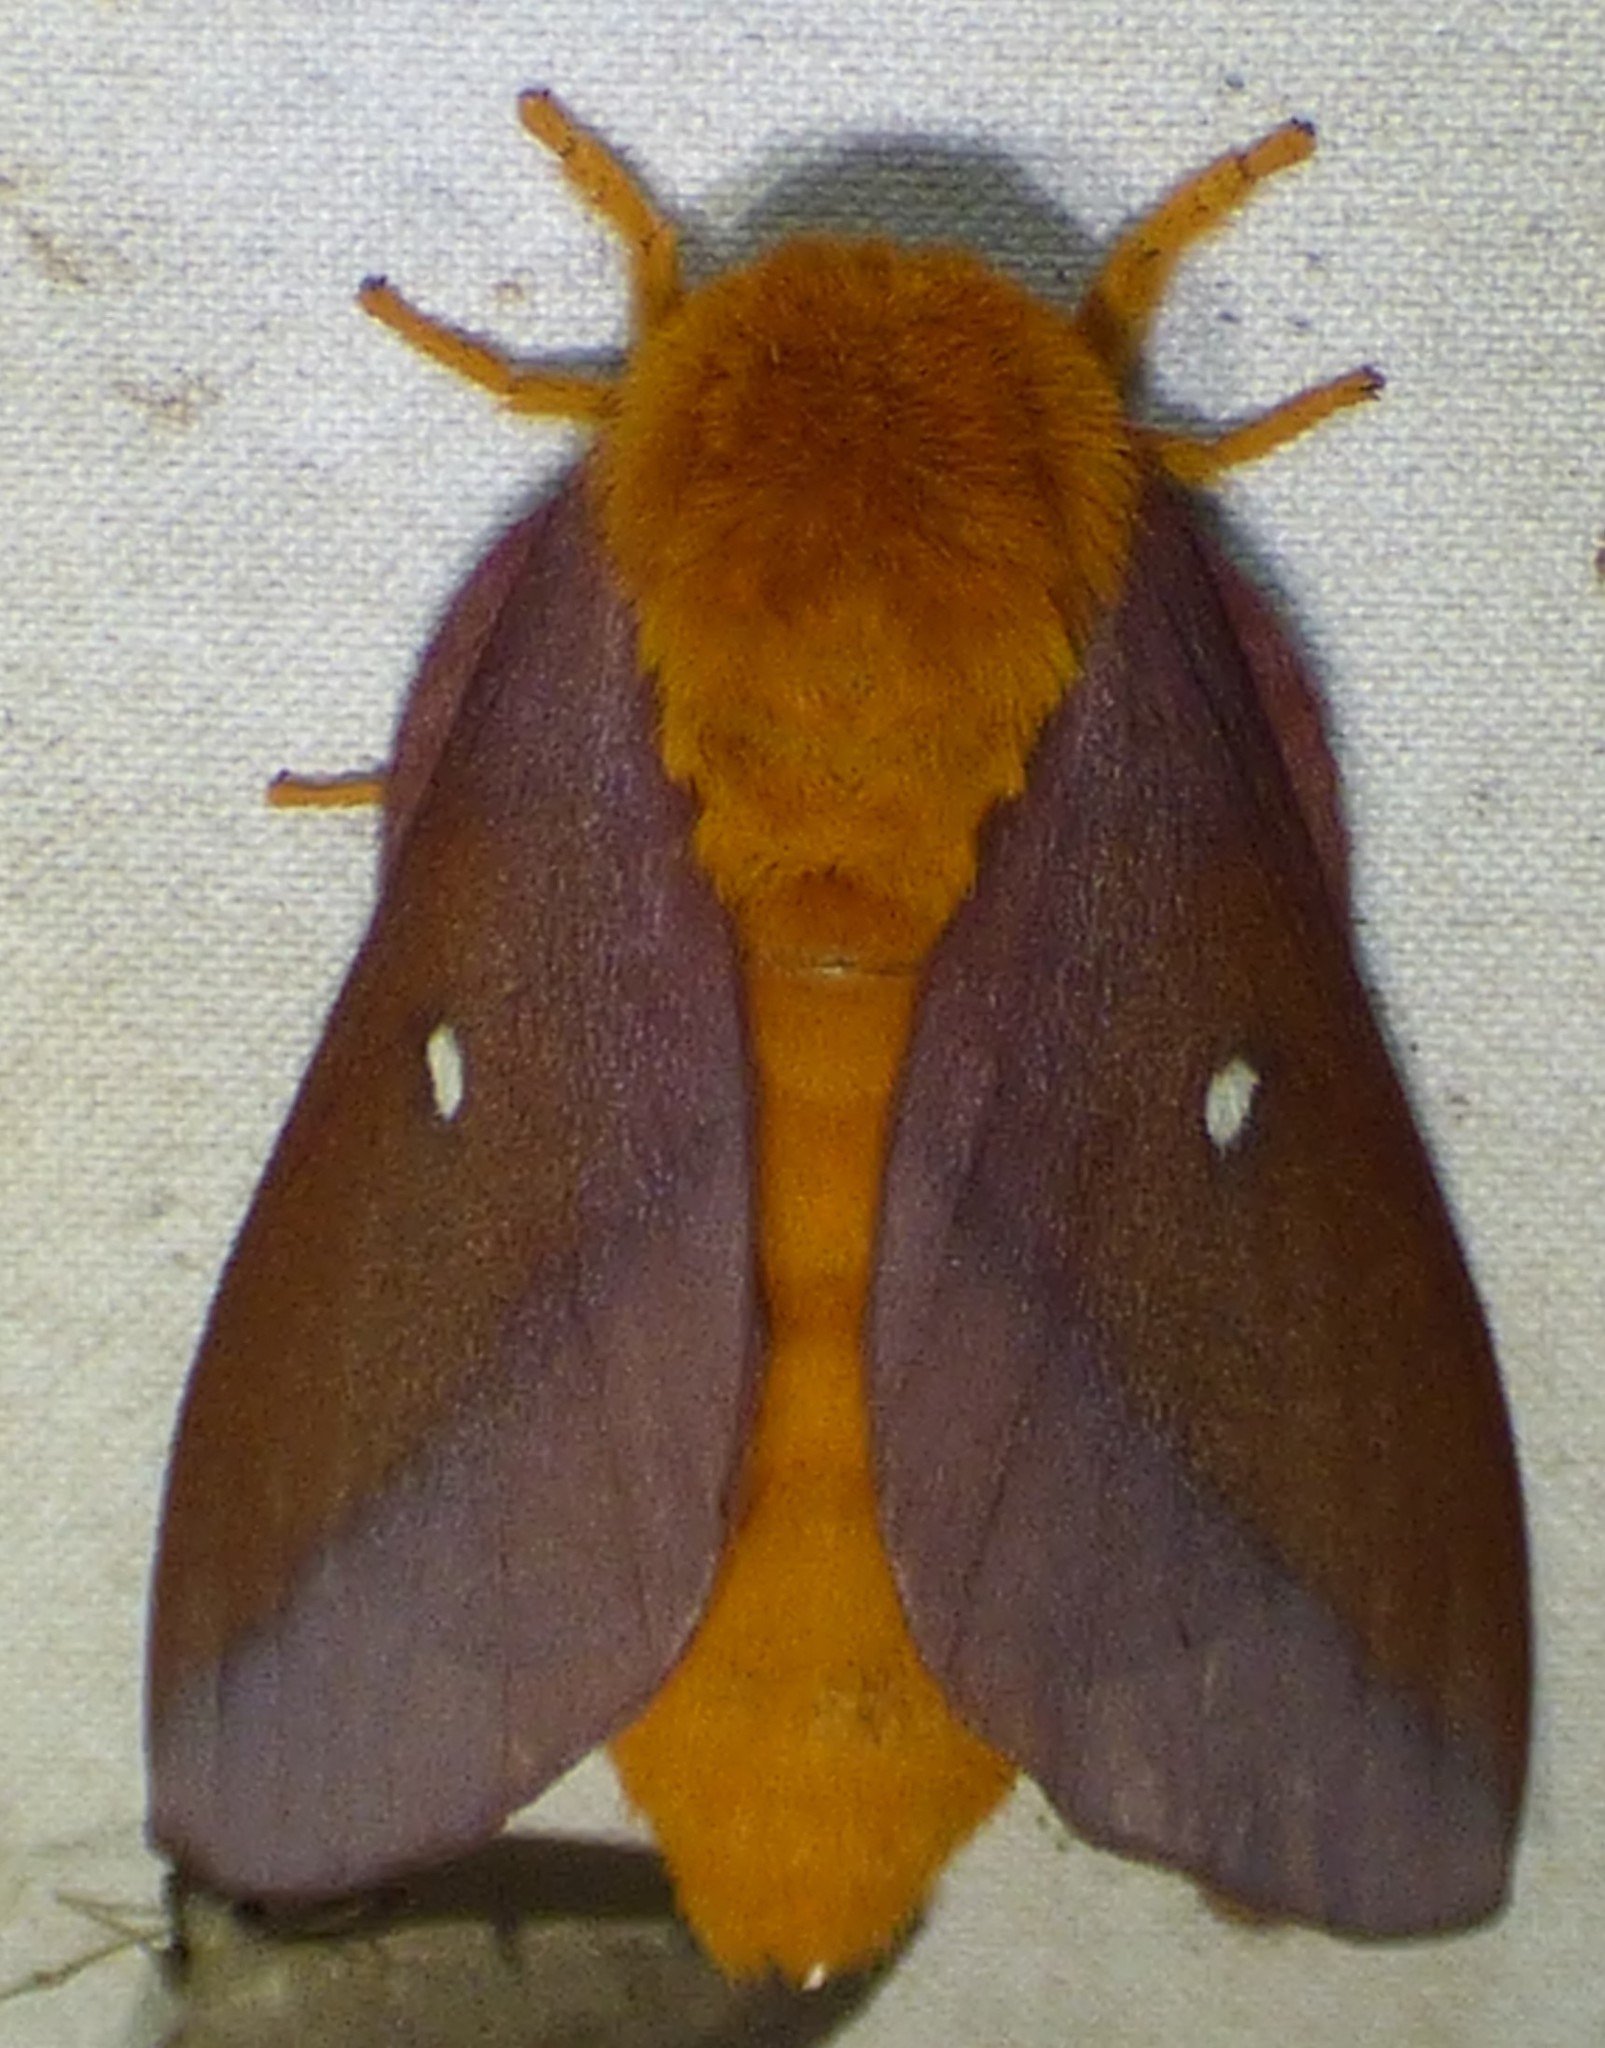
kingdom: Animalia
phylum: Arthropoda
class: Insecta
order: Lepidoptera
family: Saturniidae
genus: Anisota
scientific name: Anisota virginiensis
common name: Pink striped oakworm moth
